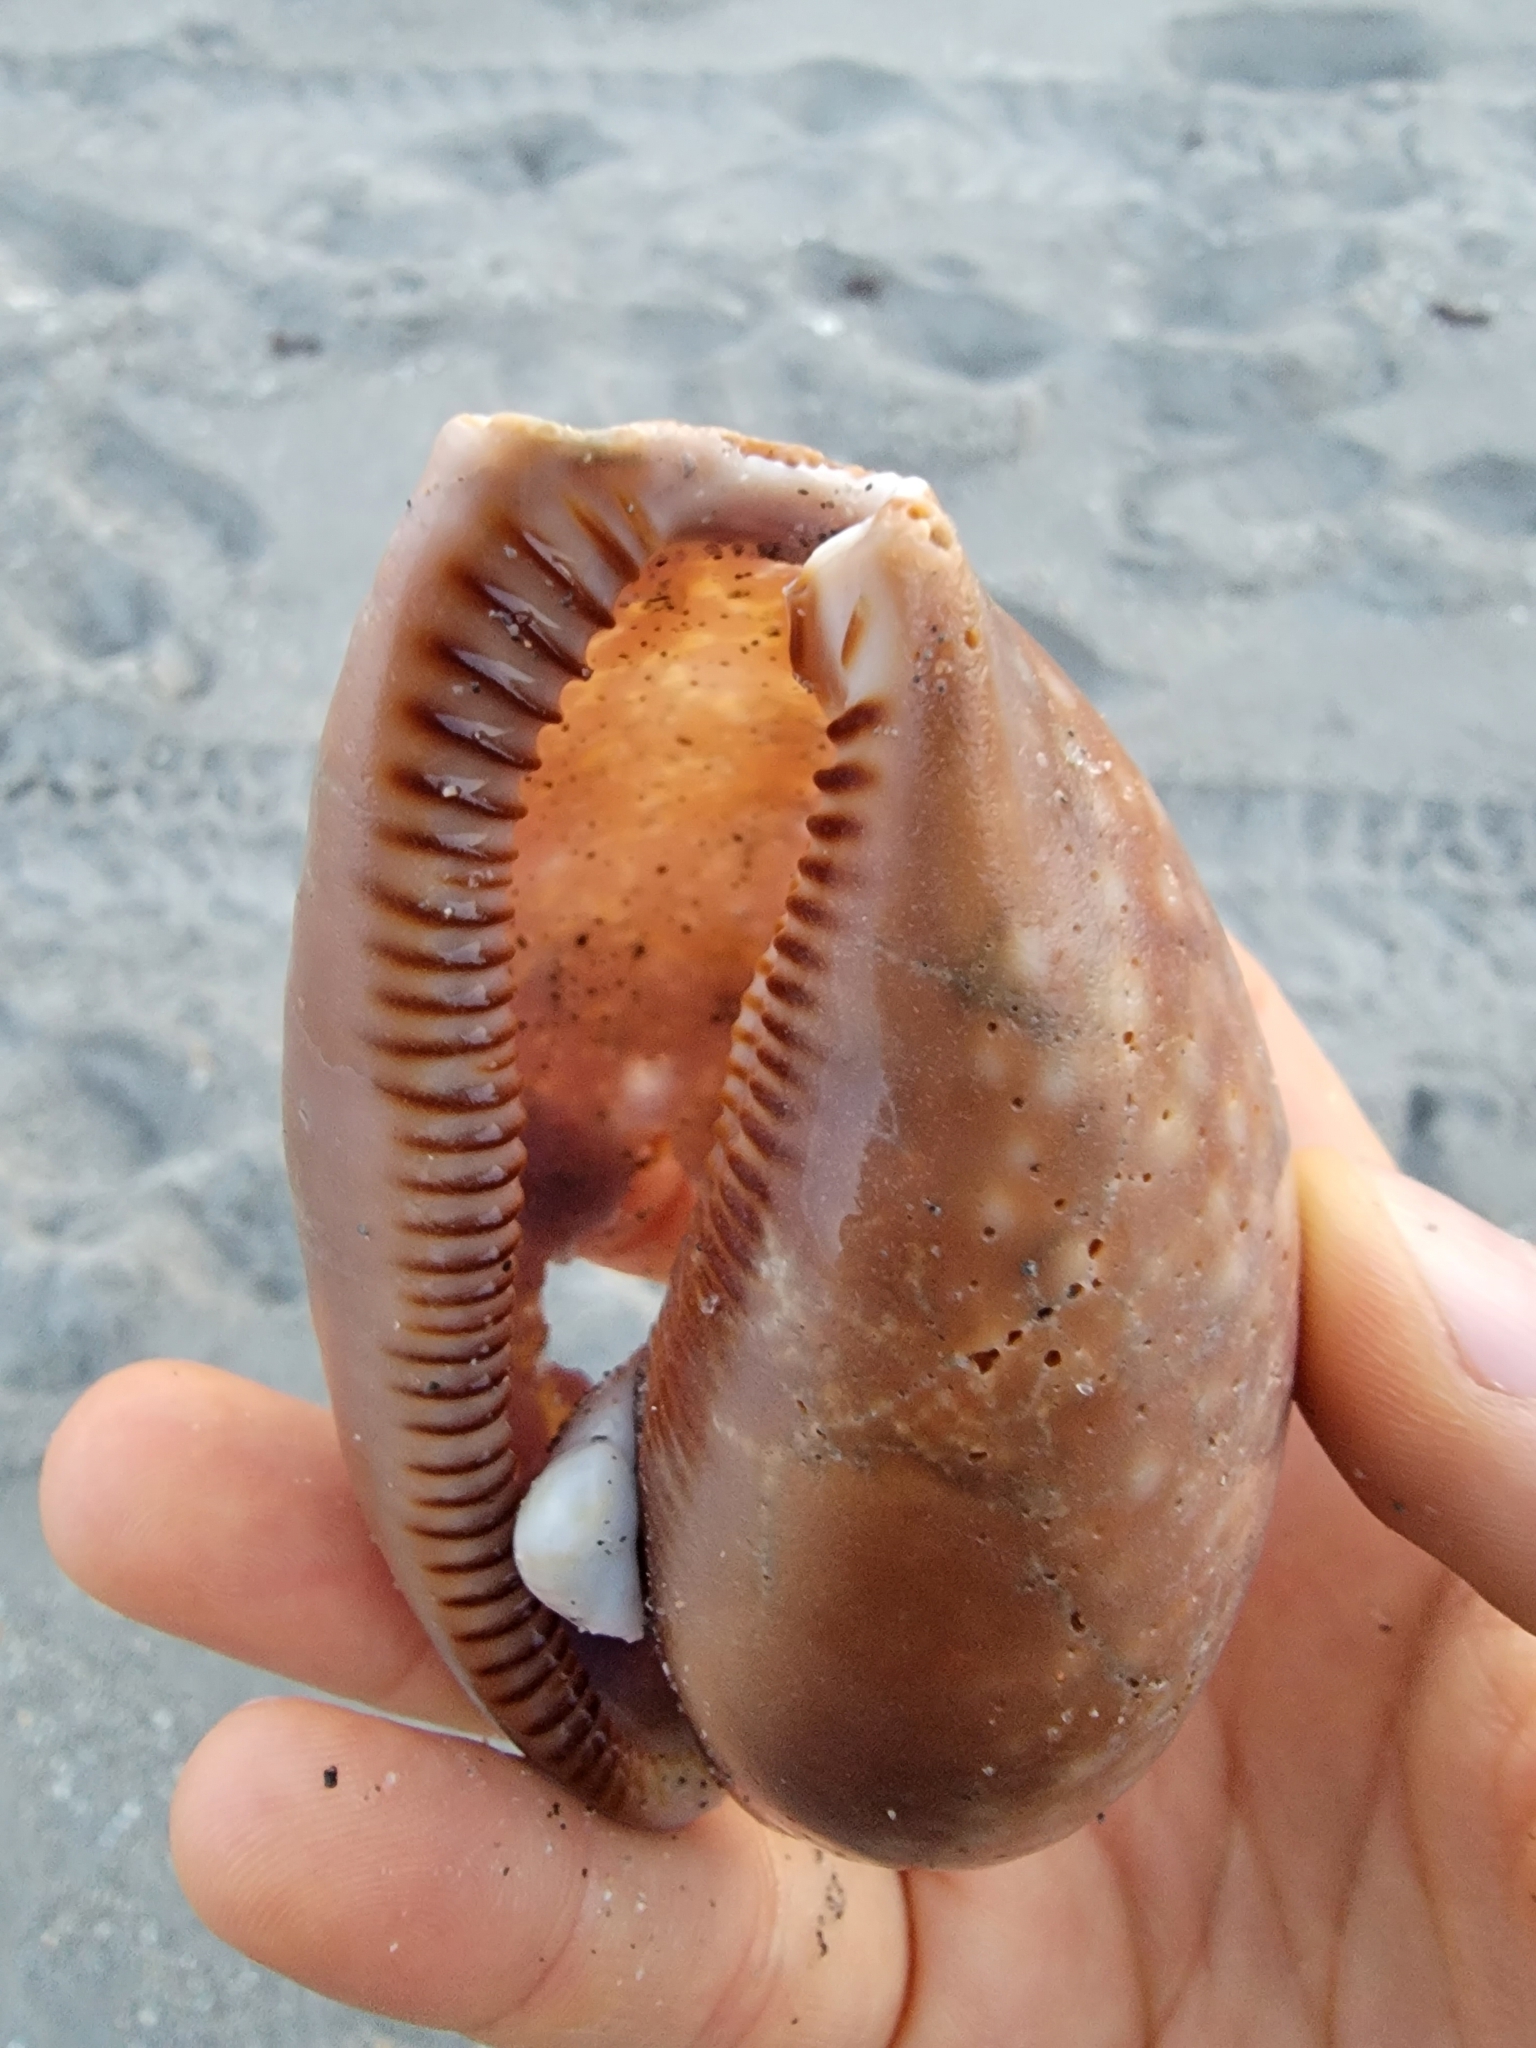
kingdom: Animalia
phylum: Mollusca
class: Gastropoda
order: Littorinimorpha
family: Cypraeidae
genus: Macrocypraea
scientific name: Macrocypraea cervus
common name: Atlantic deer cowrie
